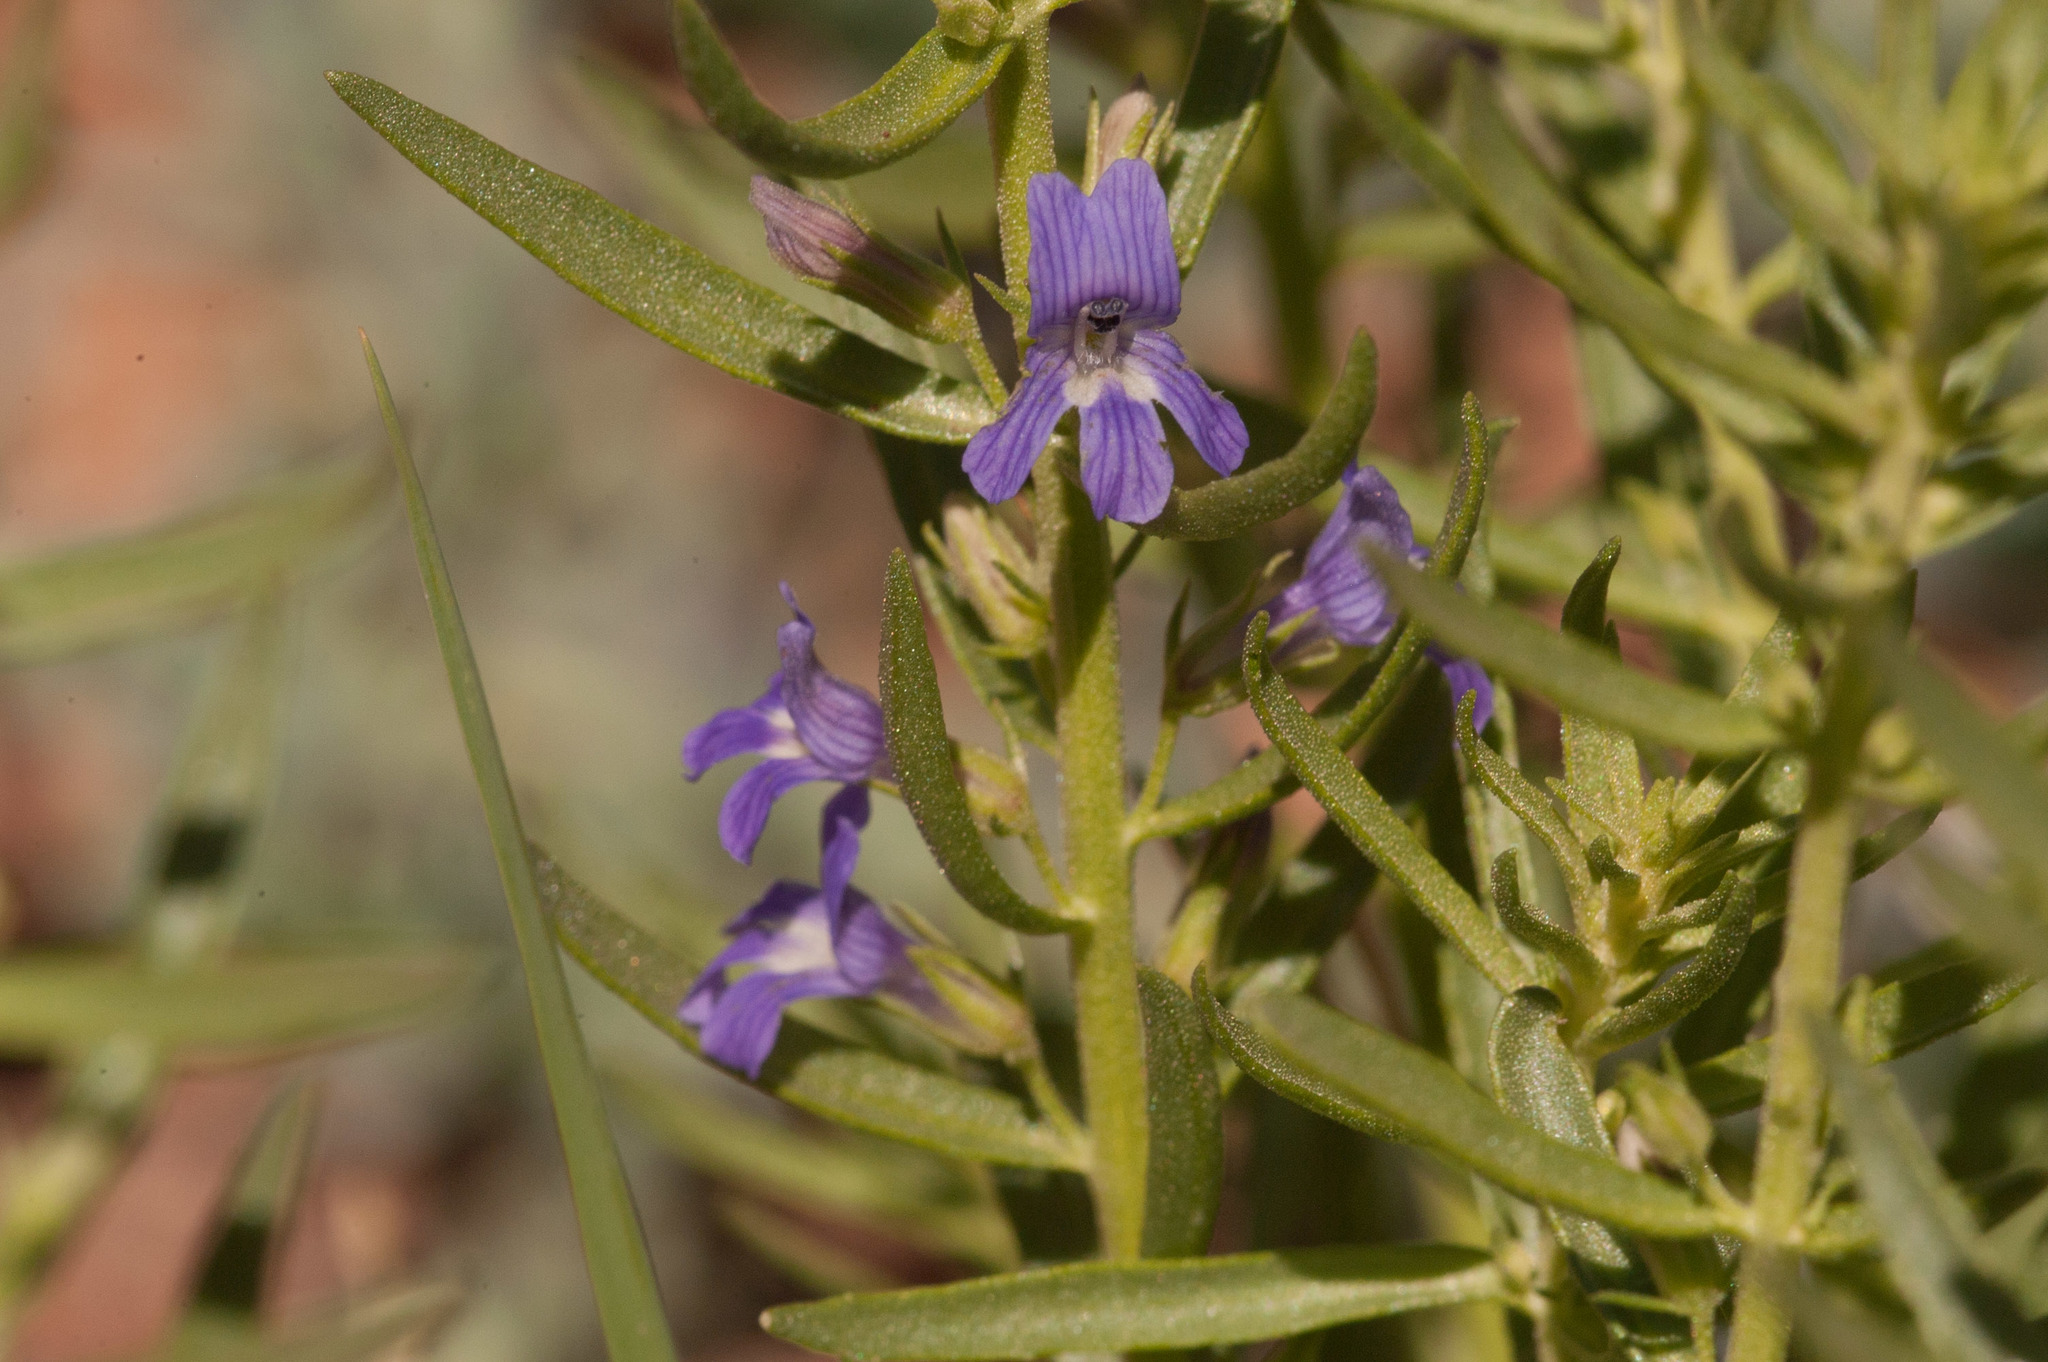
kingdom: Plantae
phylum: Tracheophyta
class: Magnoliopsida
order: Lamiales
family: Plantaginaceae
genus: Stemodia
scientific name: Stemodia florulenta
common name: Bluerod
